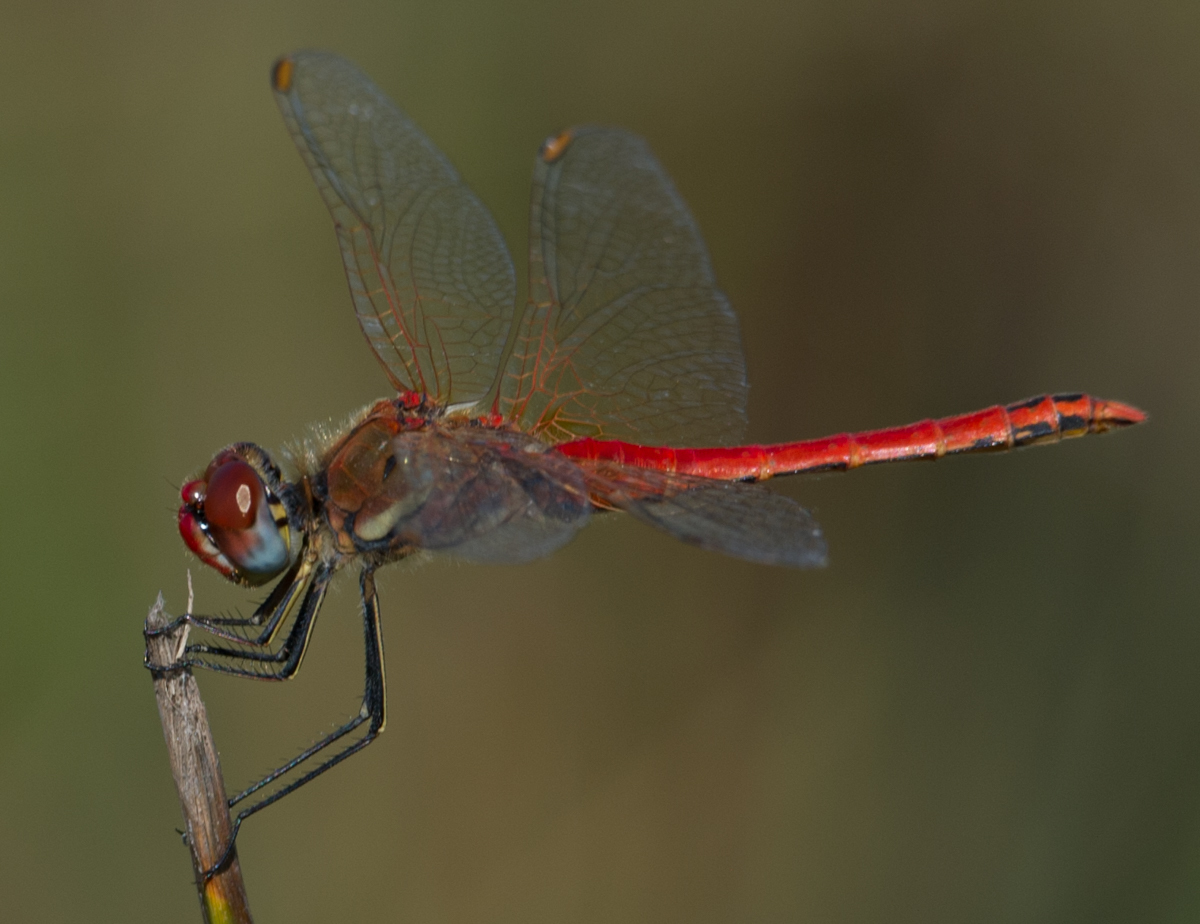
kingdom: Animalia
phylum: Arthropoda
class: Insecta
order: Odonata
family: Libellulidae
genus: Sympetrum
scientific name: Sympetrum fonscolombii
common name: Red-veined darter
